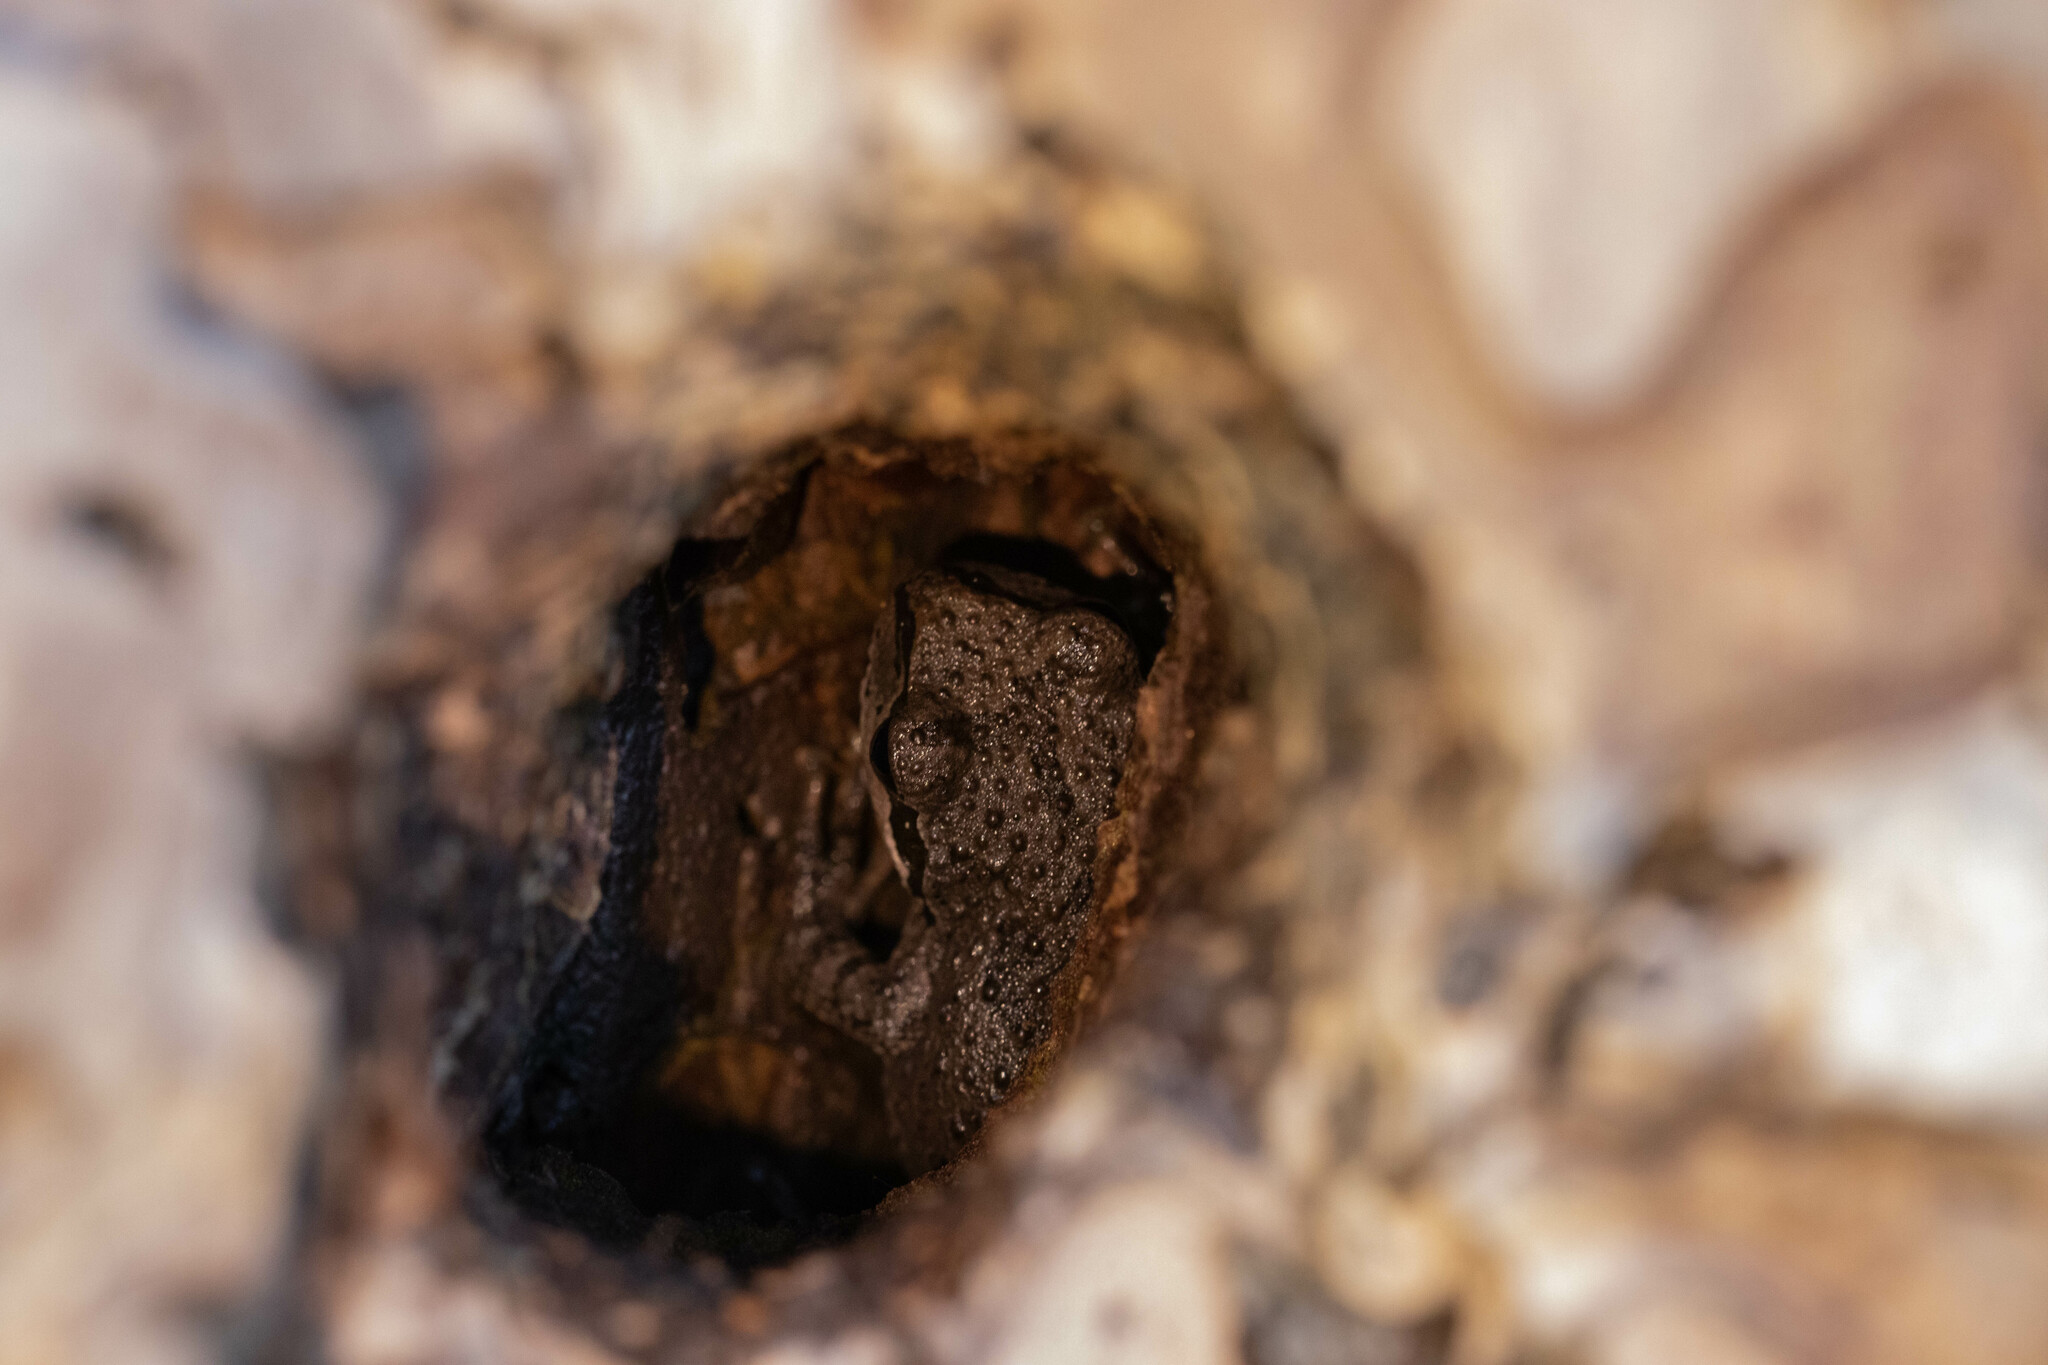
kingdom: Animalia
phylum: Chordata
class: Amphibia
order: Anura
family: Hylidae
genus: Pseudacris
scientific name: Pseudacris regilla
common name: Pacific chorus frog
